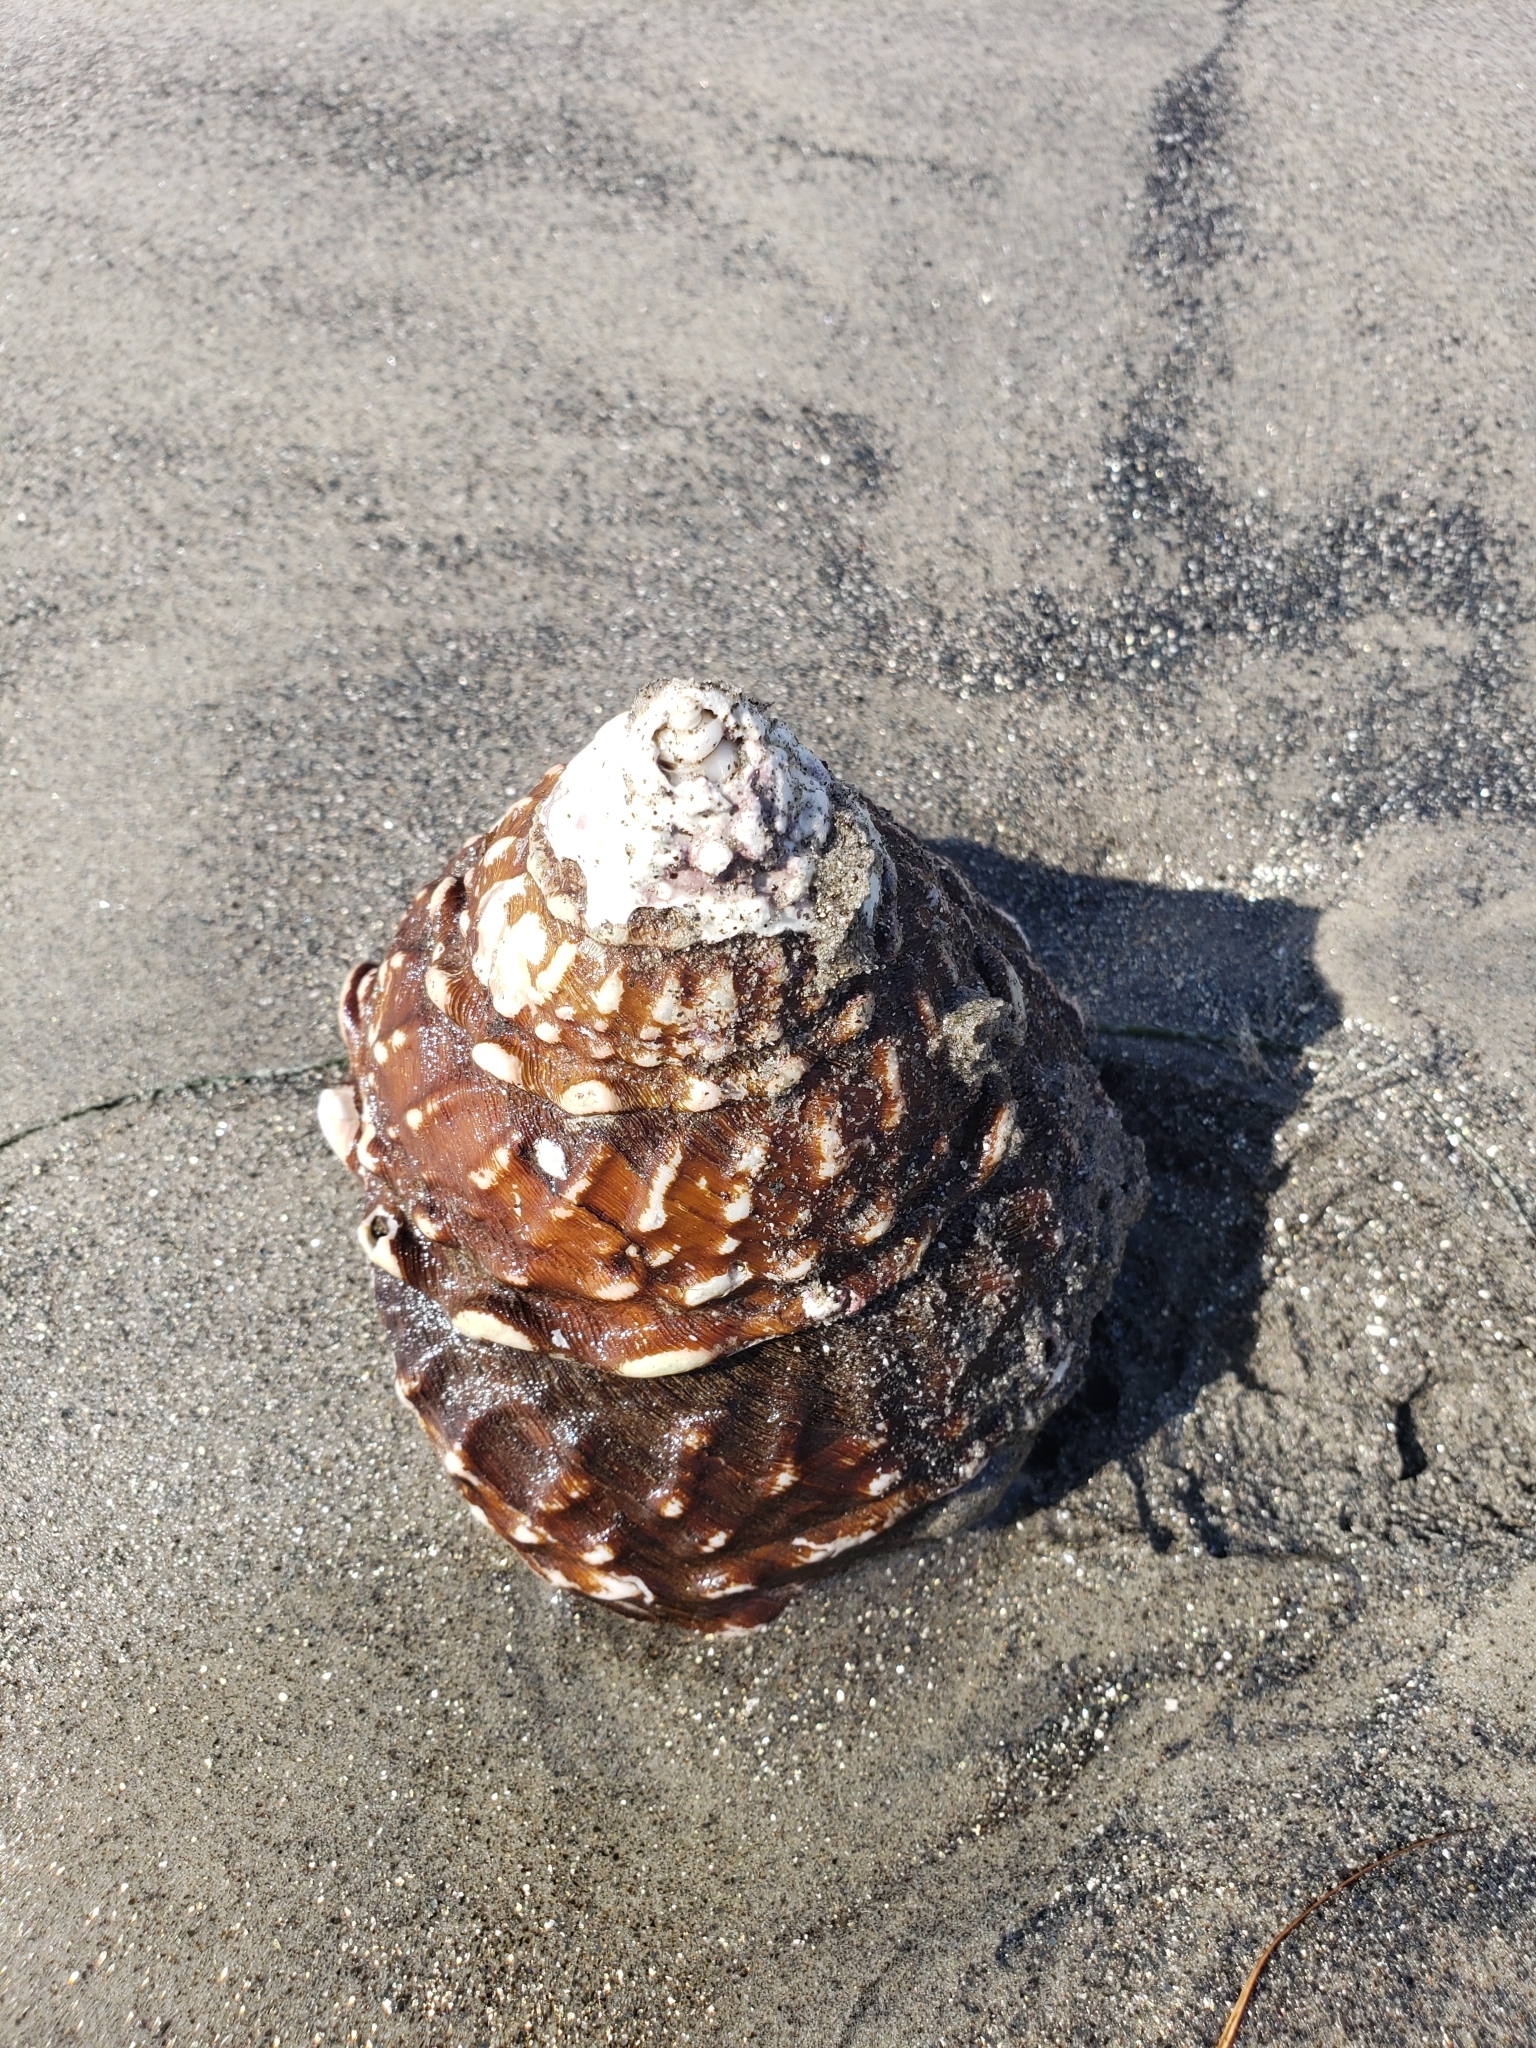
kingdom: Animalia
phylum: Mollusca
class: Gastropoda
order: Trochida
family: Turbinidae
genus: Megastraea
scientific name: Megastraea undosa
